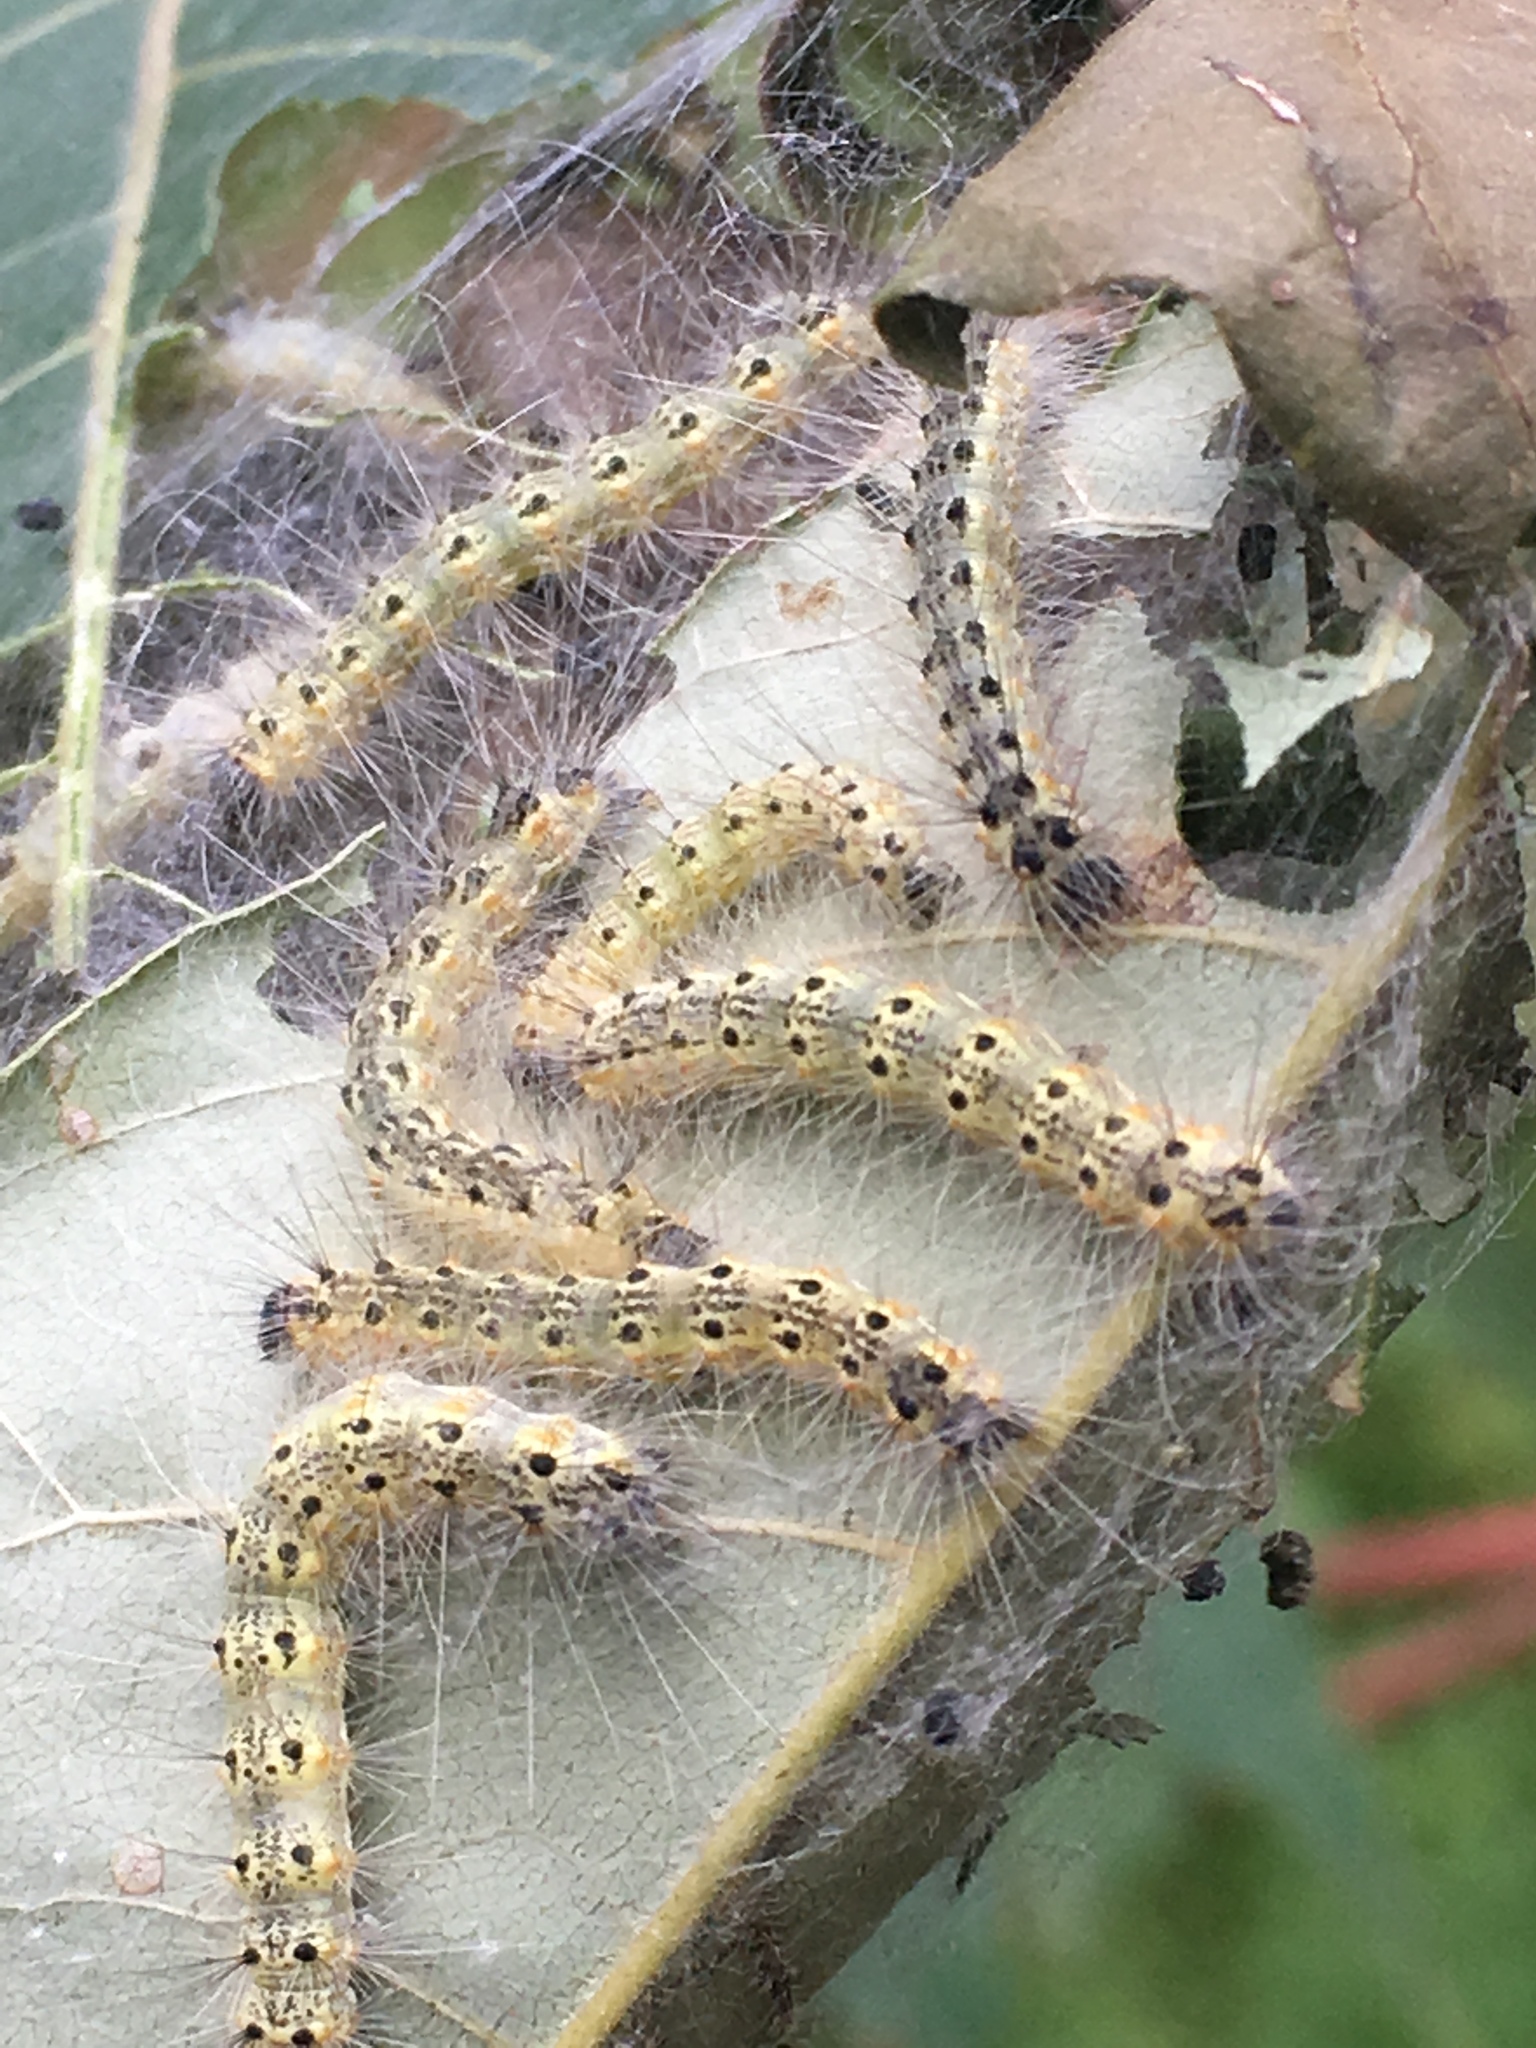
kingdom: Animalia
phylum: Arthropoda
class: Insecta
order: Lepidoptera
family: Erebidae
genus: Hyphantria
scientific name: Hyphantria cunea
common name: American white moth
